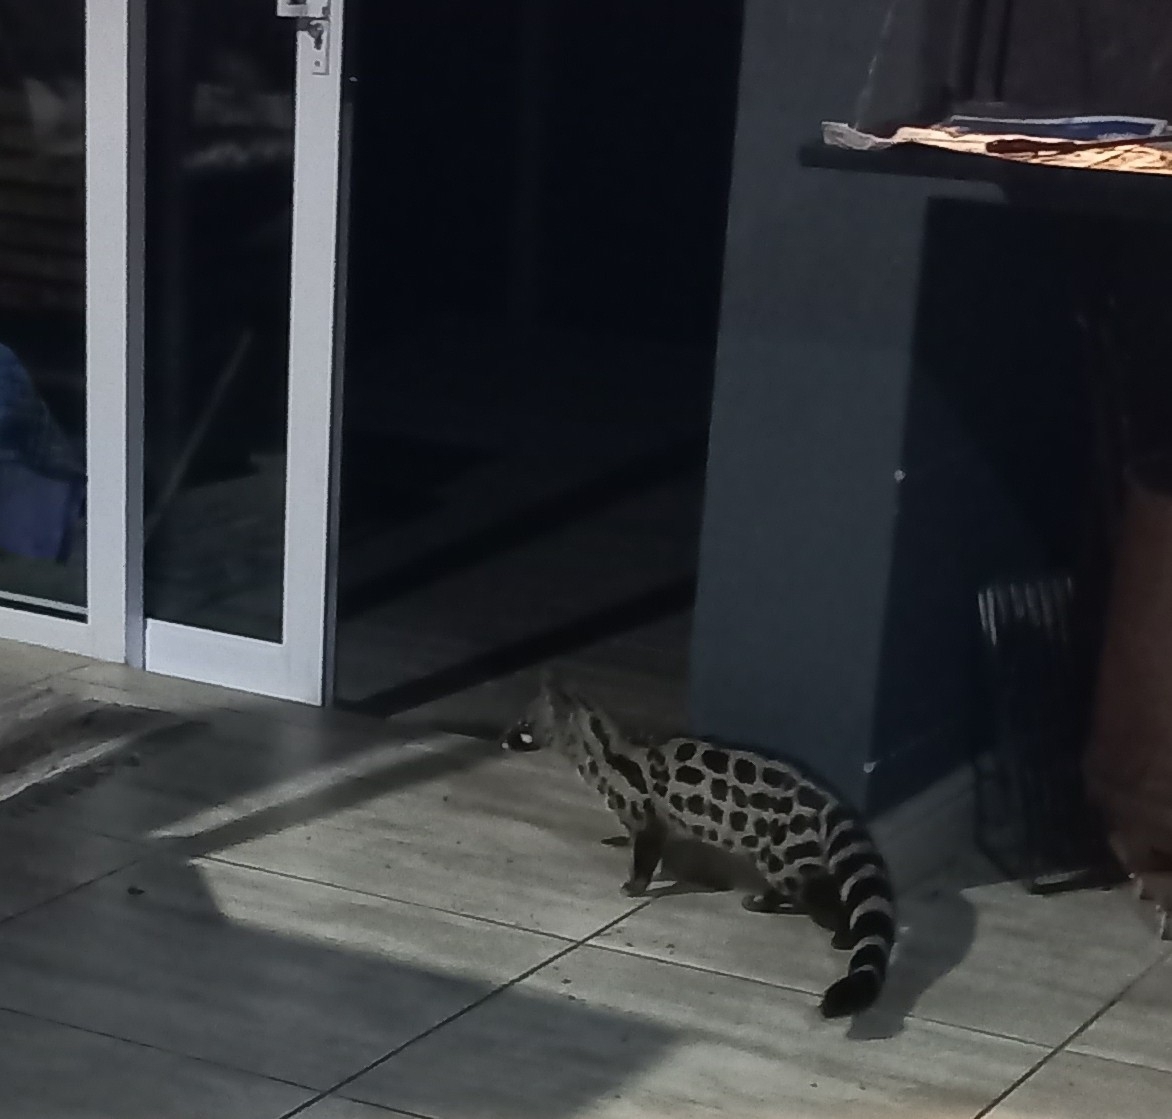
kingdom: Animalia
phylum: Chordata
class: Mammalia
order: Carnivora
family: Viverridae
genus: Genetta
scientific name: Genetta tigrina
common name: Cape genet
